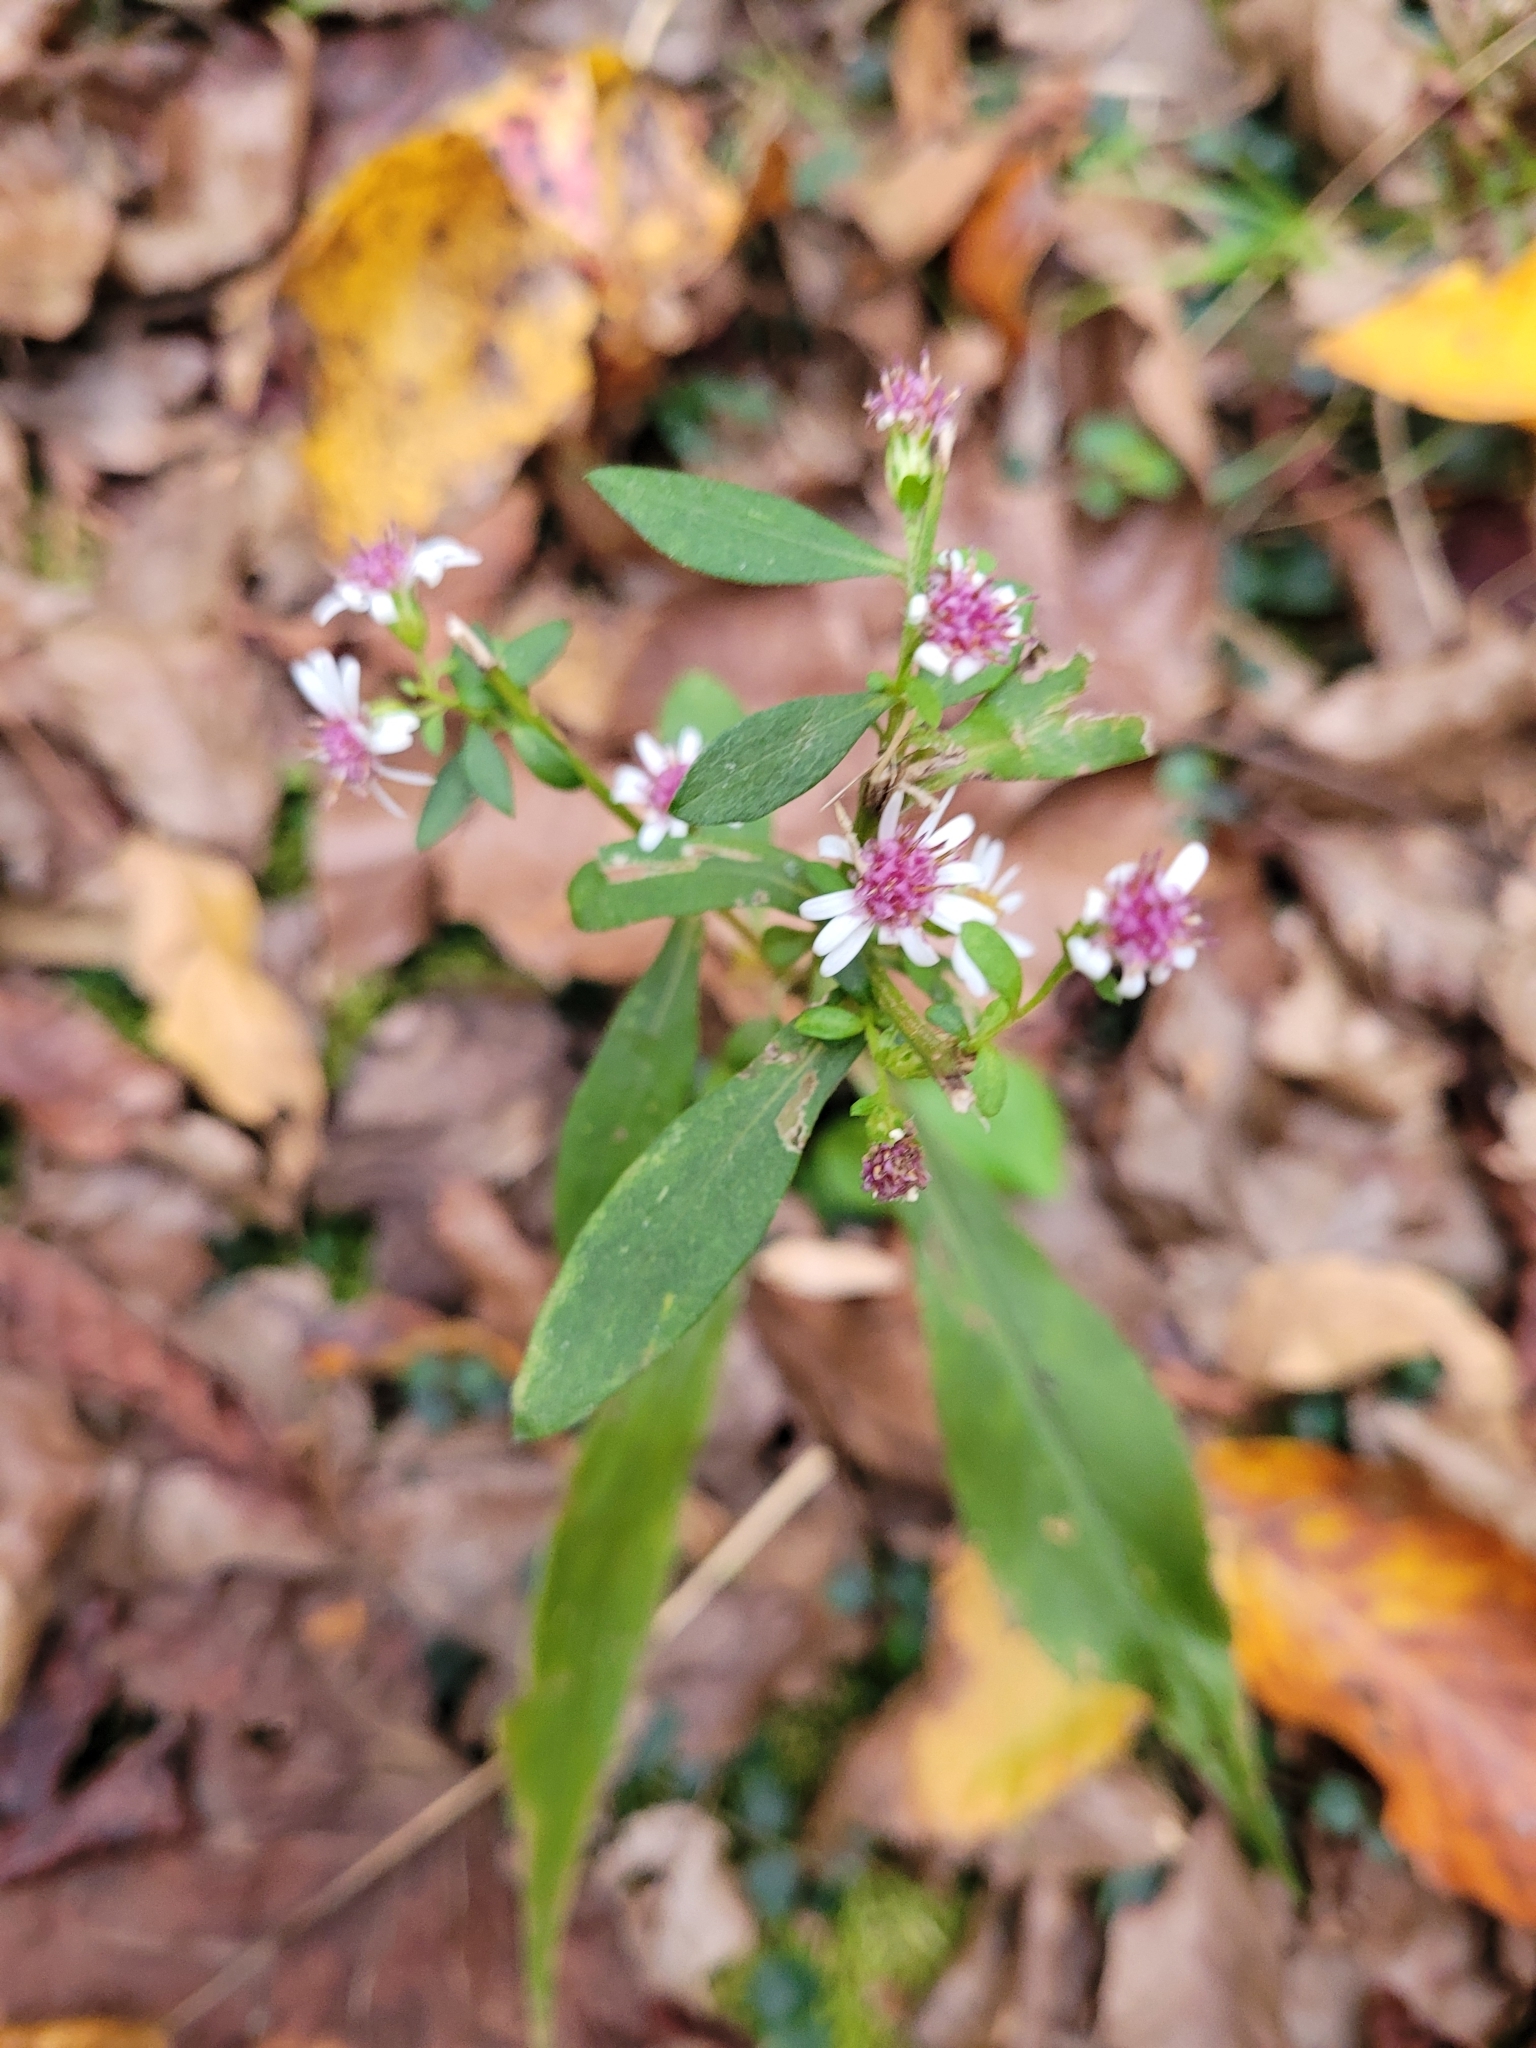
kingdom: Plantae
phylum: Tracheophyta
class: Magnoliopsida
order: Asterales
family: Asteraceae
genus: Symphyotrichum
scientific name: Symphyotrichum lateriflorum
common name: Calico aster
